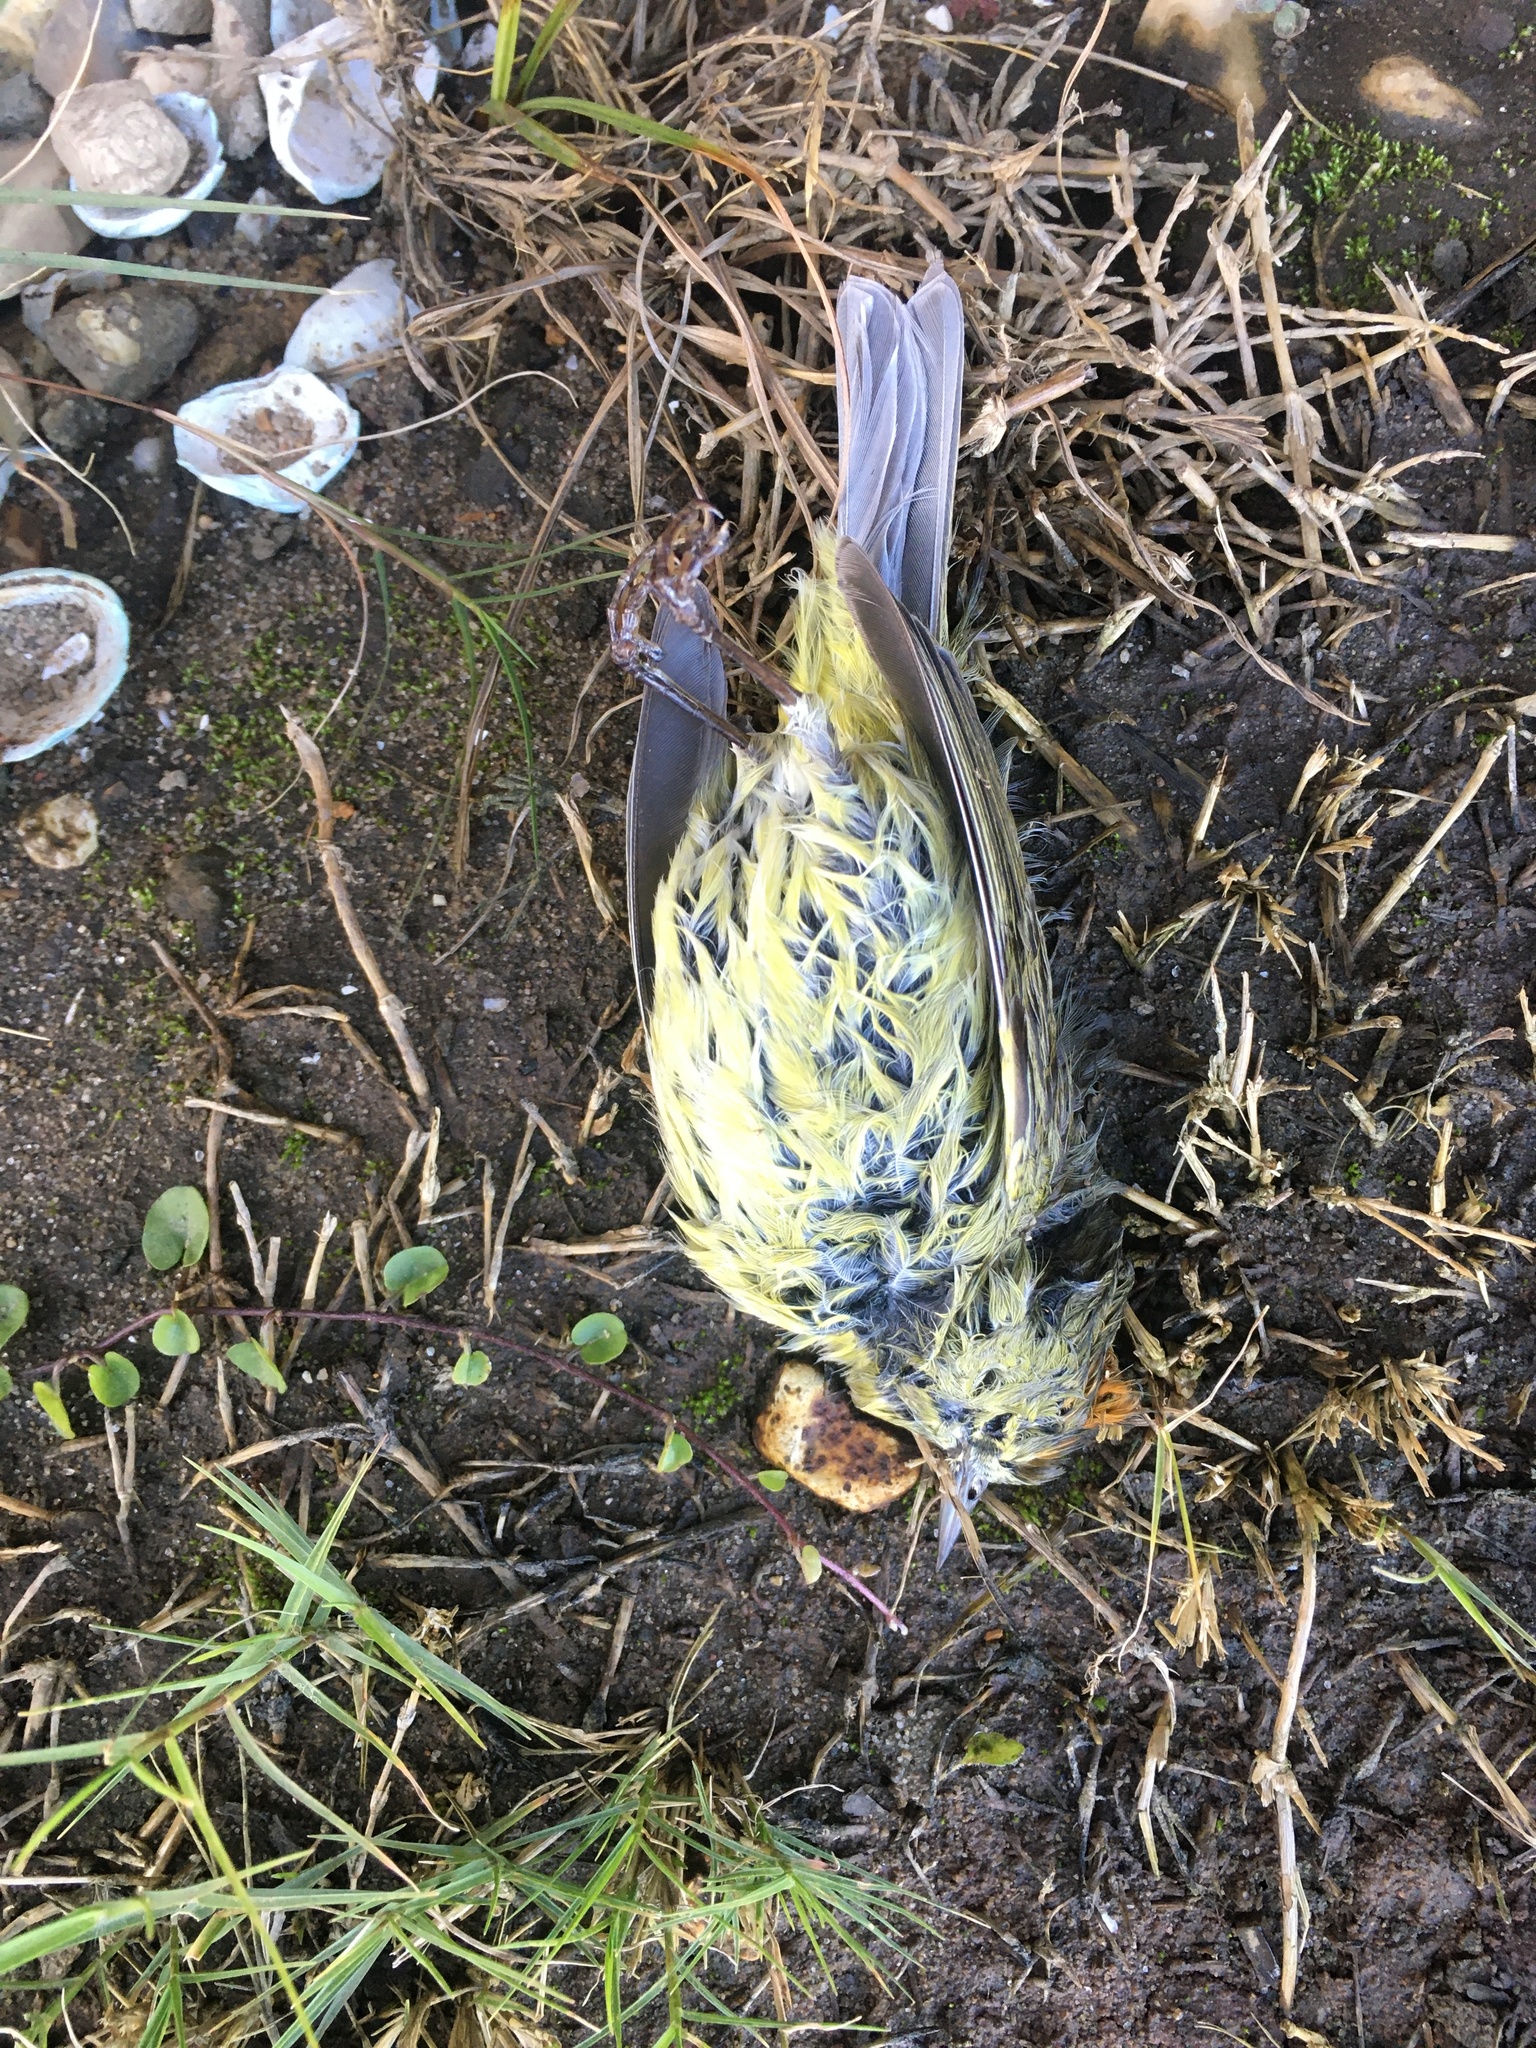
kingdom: Animalia
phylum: Chordata
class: Aves
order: Passeriformes
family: Parulidae
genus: Leiothlypis
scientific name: Leiothlypis celata
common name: Orange-crowned warbler
